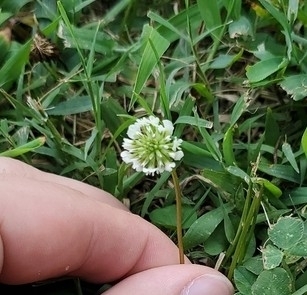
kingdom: Plantae
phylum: Tracheophyta
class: Magnoliopsida
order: Fabales
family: Fabaceae
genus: Trifolium
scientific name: Trifolium repens
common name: White clover
